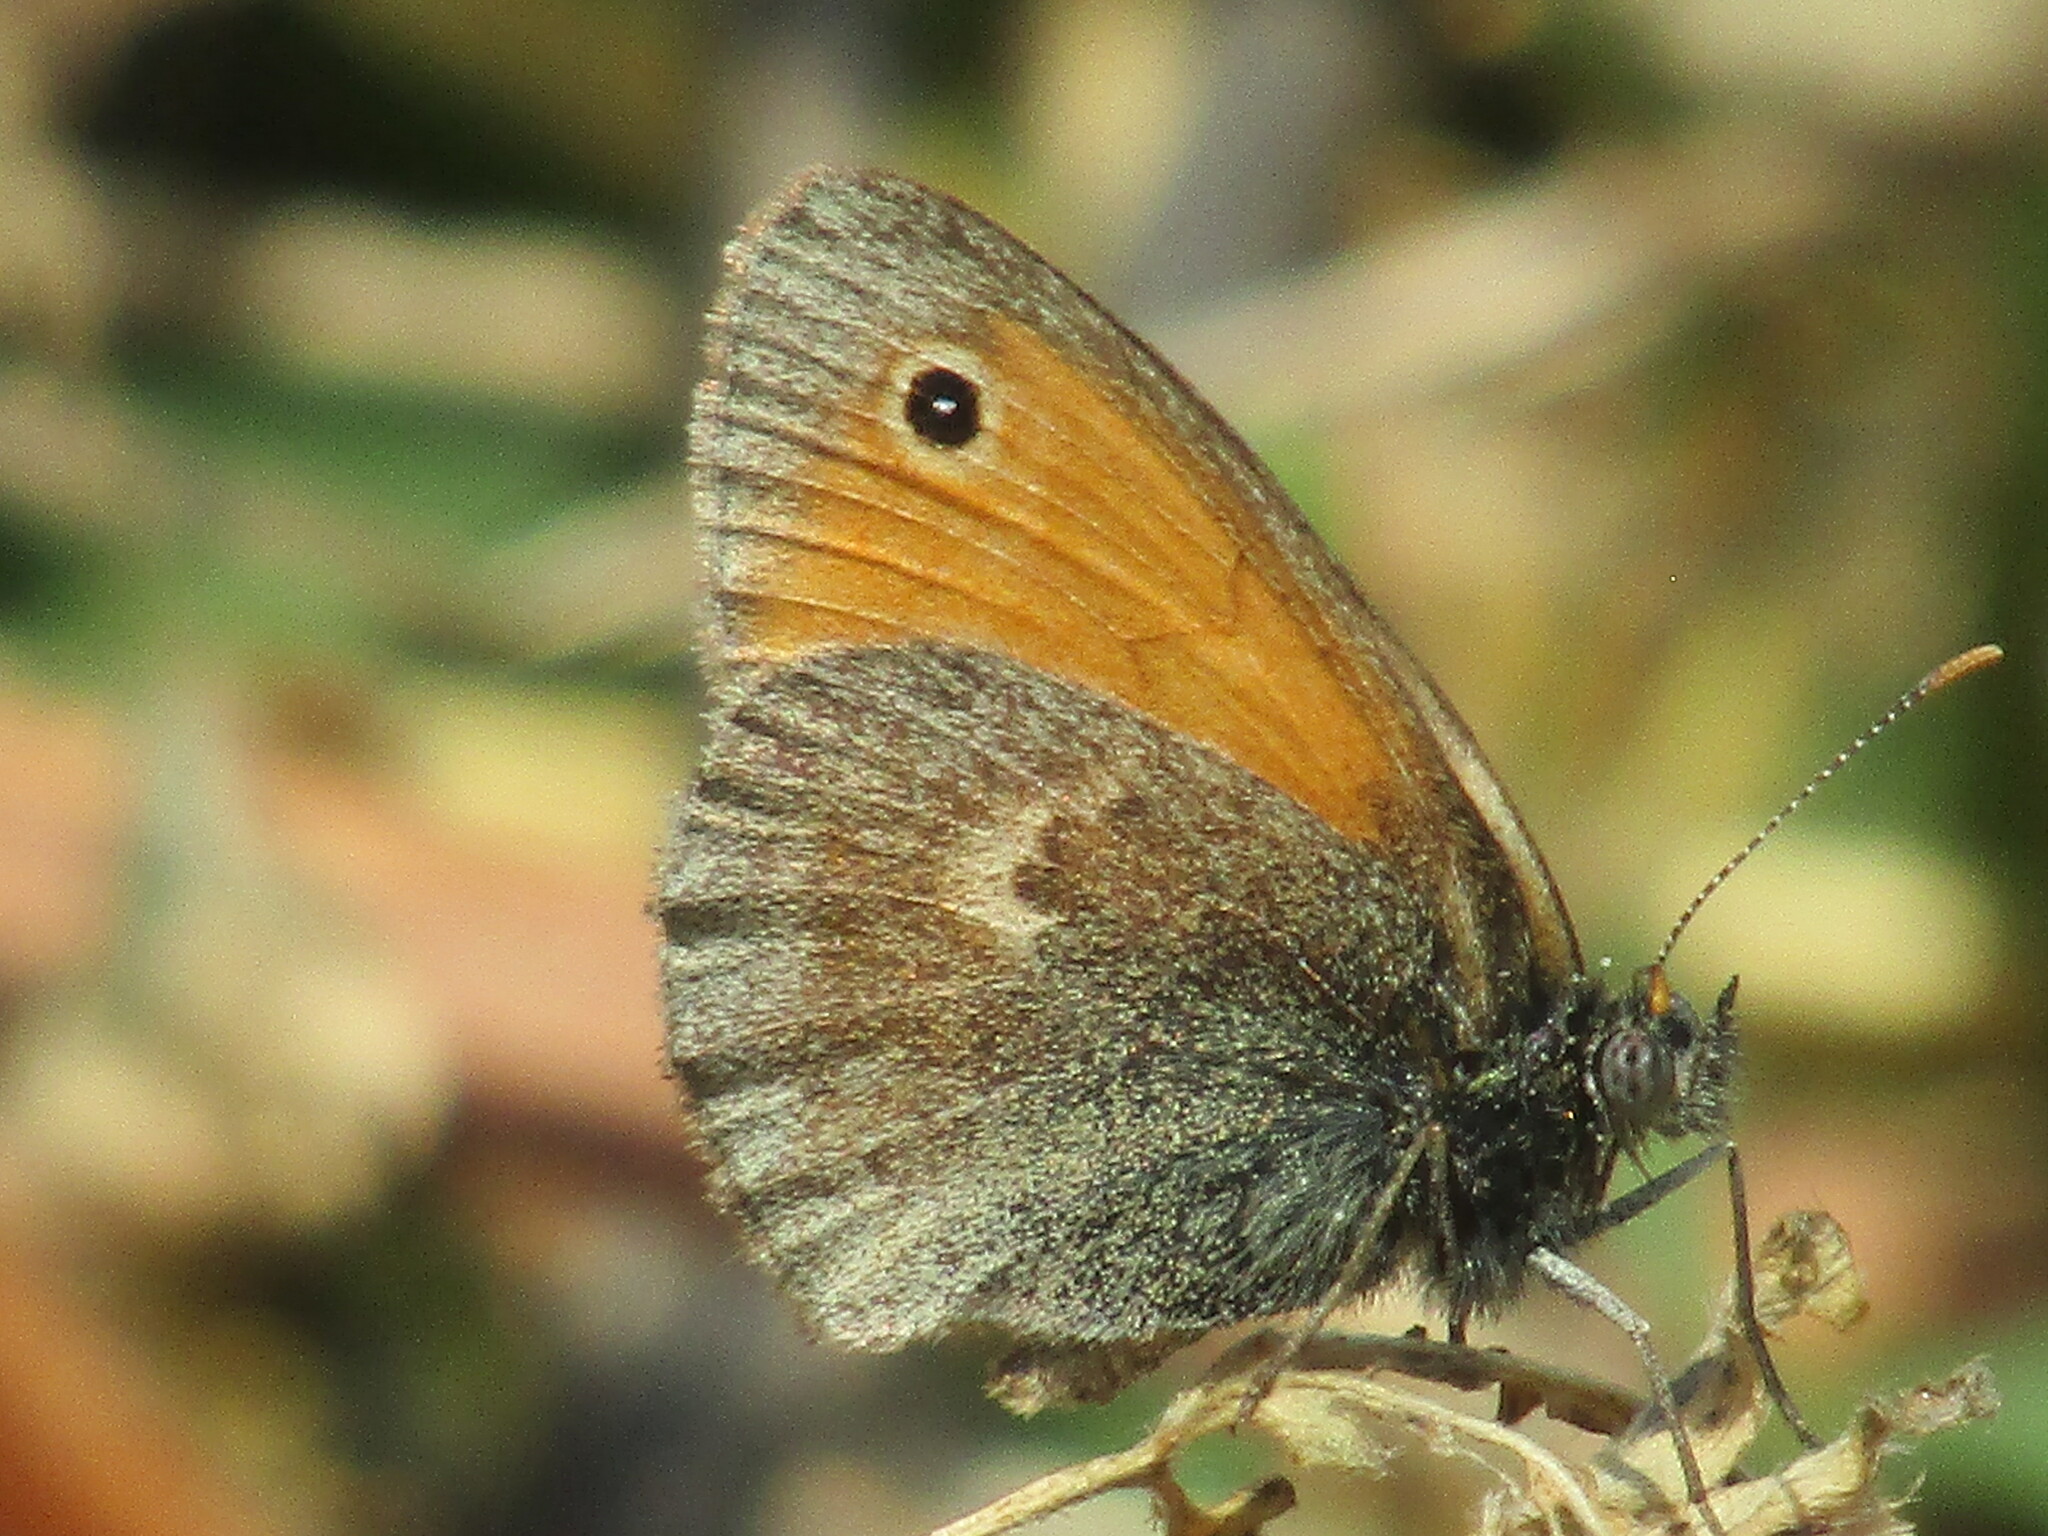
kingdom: Animalia
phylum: Arthropoda
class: Insecta
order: Lepidoptera
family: Nymphalidae
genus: Coenonympha
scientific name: Coenonympha pamphilus
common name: Small heath
